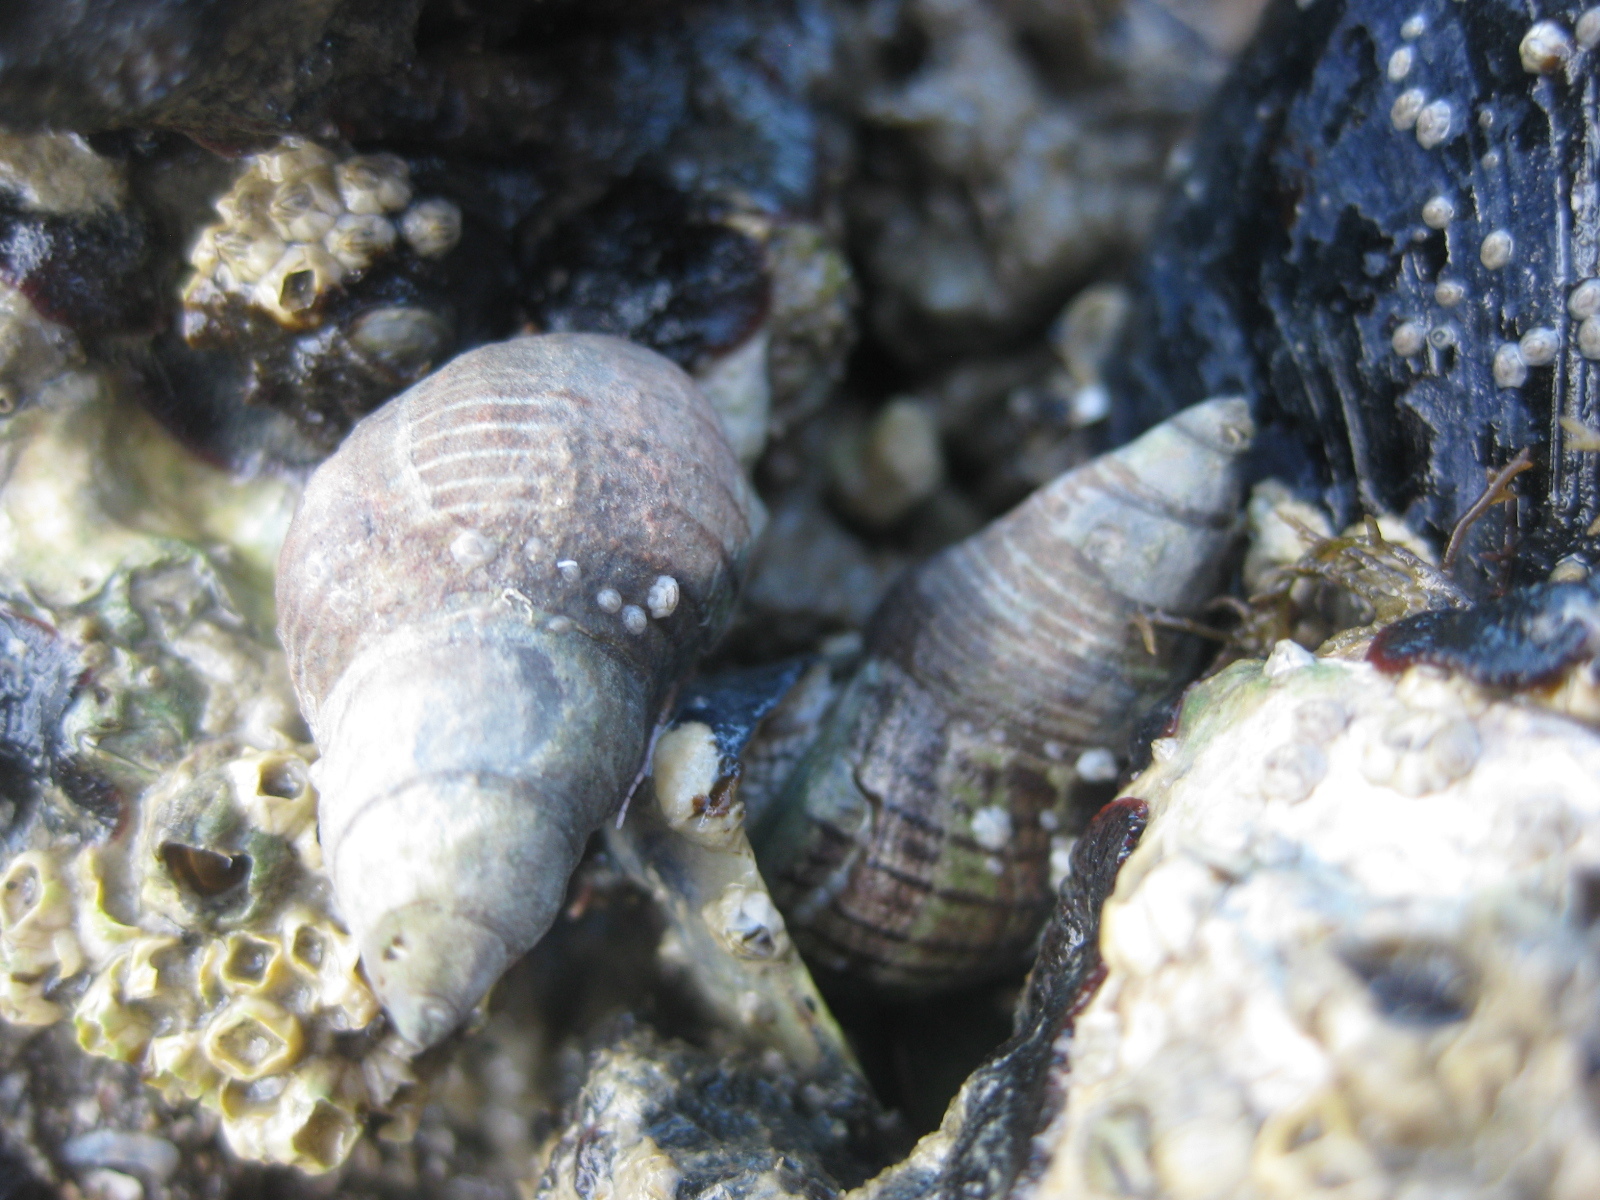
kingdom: Animalia
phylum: Mollusca
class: Gastropoda
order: Neogastropoda
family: Cominellidae
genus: Cominella
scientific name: Cominella virgata
